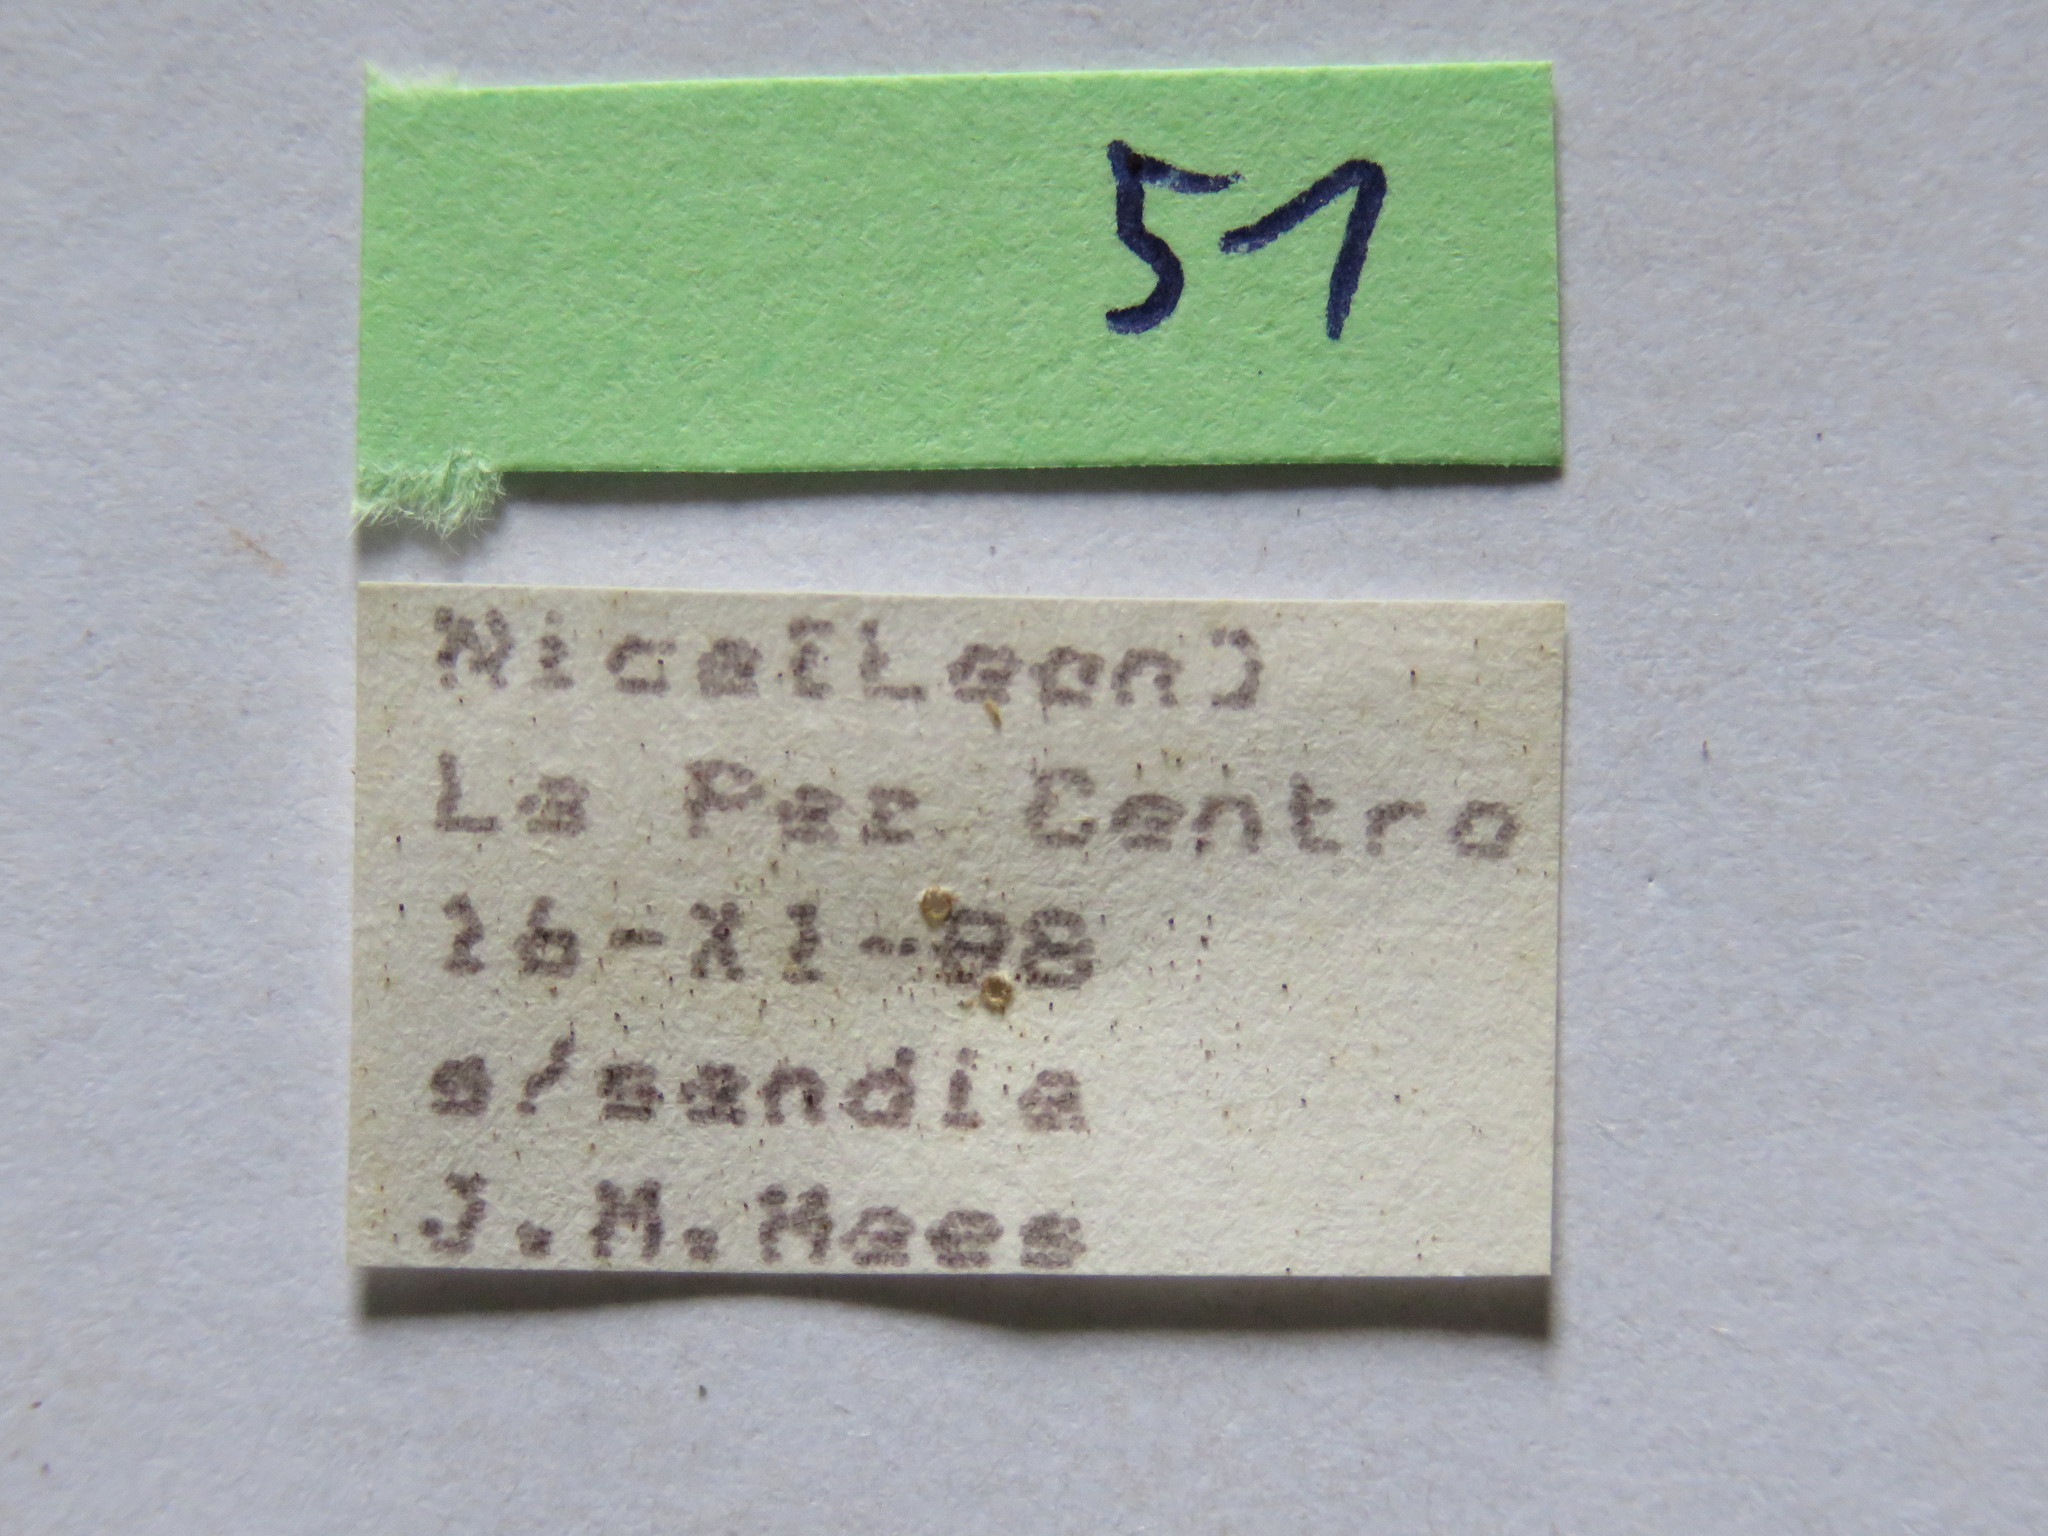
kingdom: Animalia
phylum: Arthropoda
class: Insecta
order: Hemiptera
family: Coreidae
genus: Phthiacnemia
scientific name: Phthiacnemia picta
